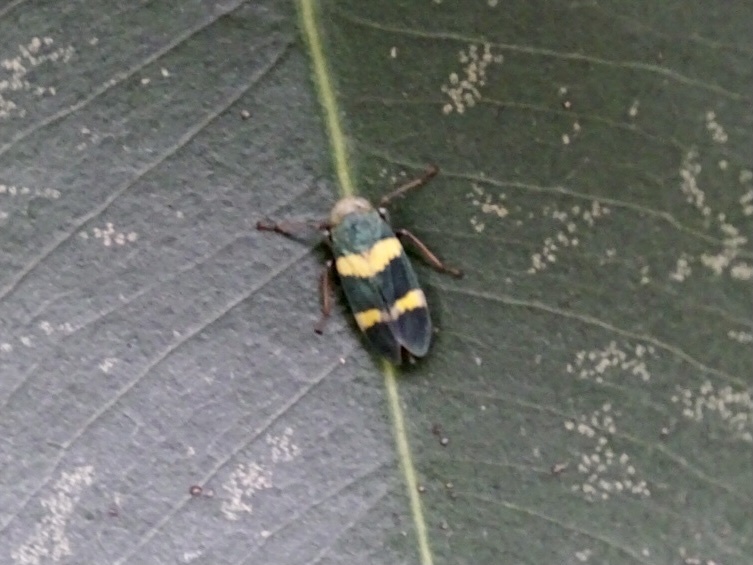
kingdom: Animalia
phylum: Arthropoda
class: Insecta
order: Hemiptera
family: Cicadellidae
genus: Olidiana
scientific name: Olidiana brevis
